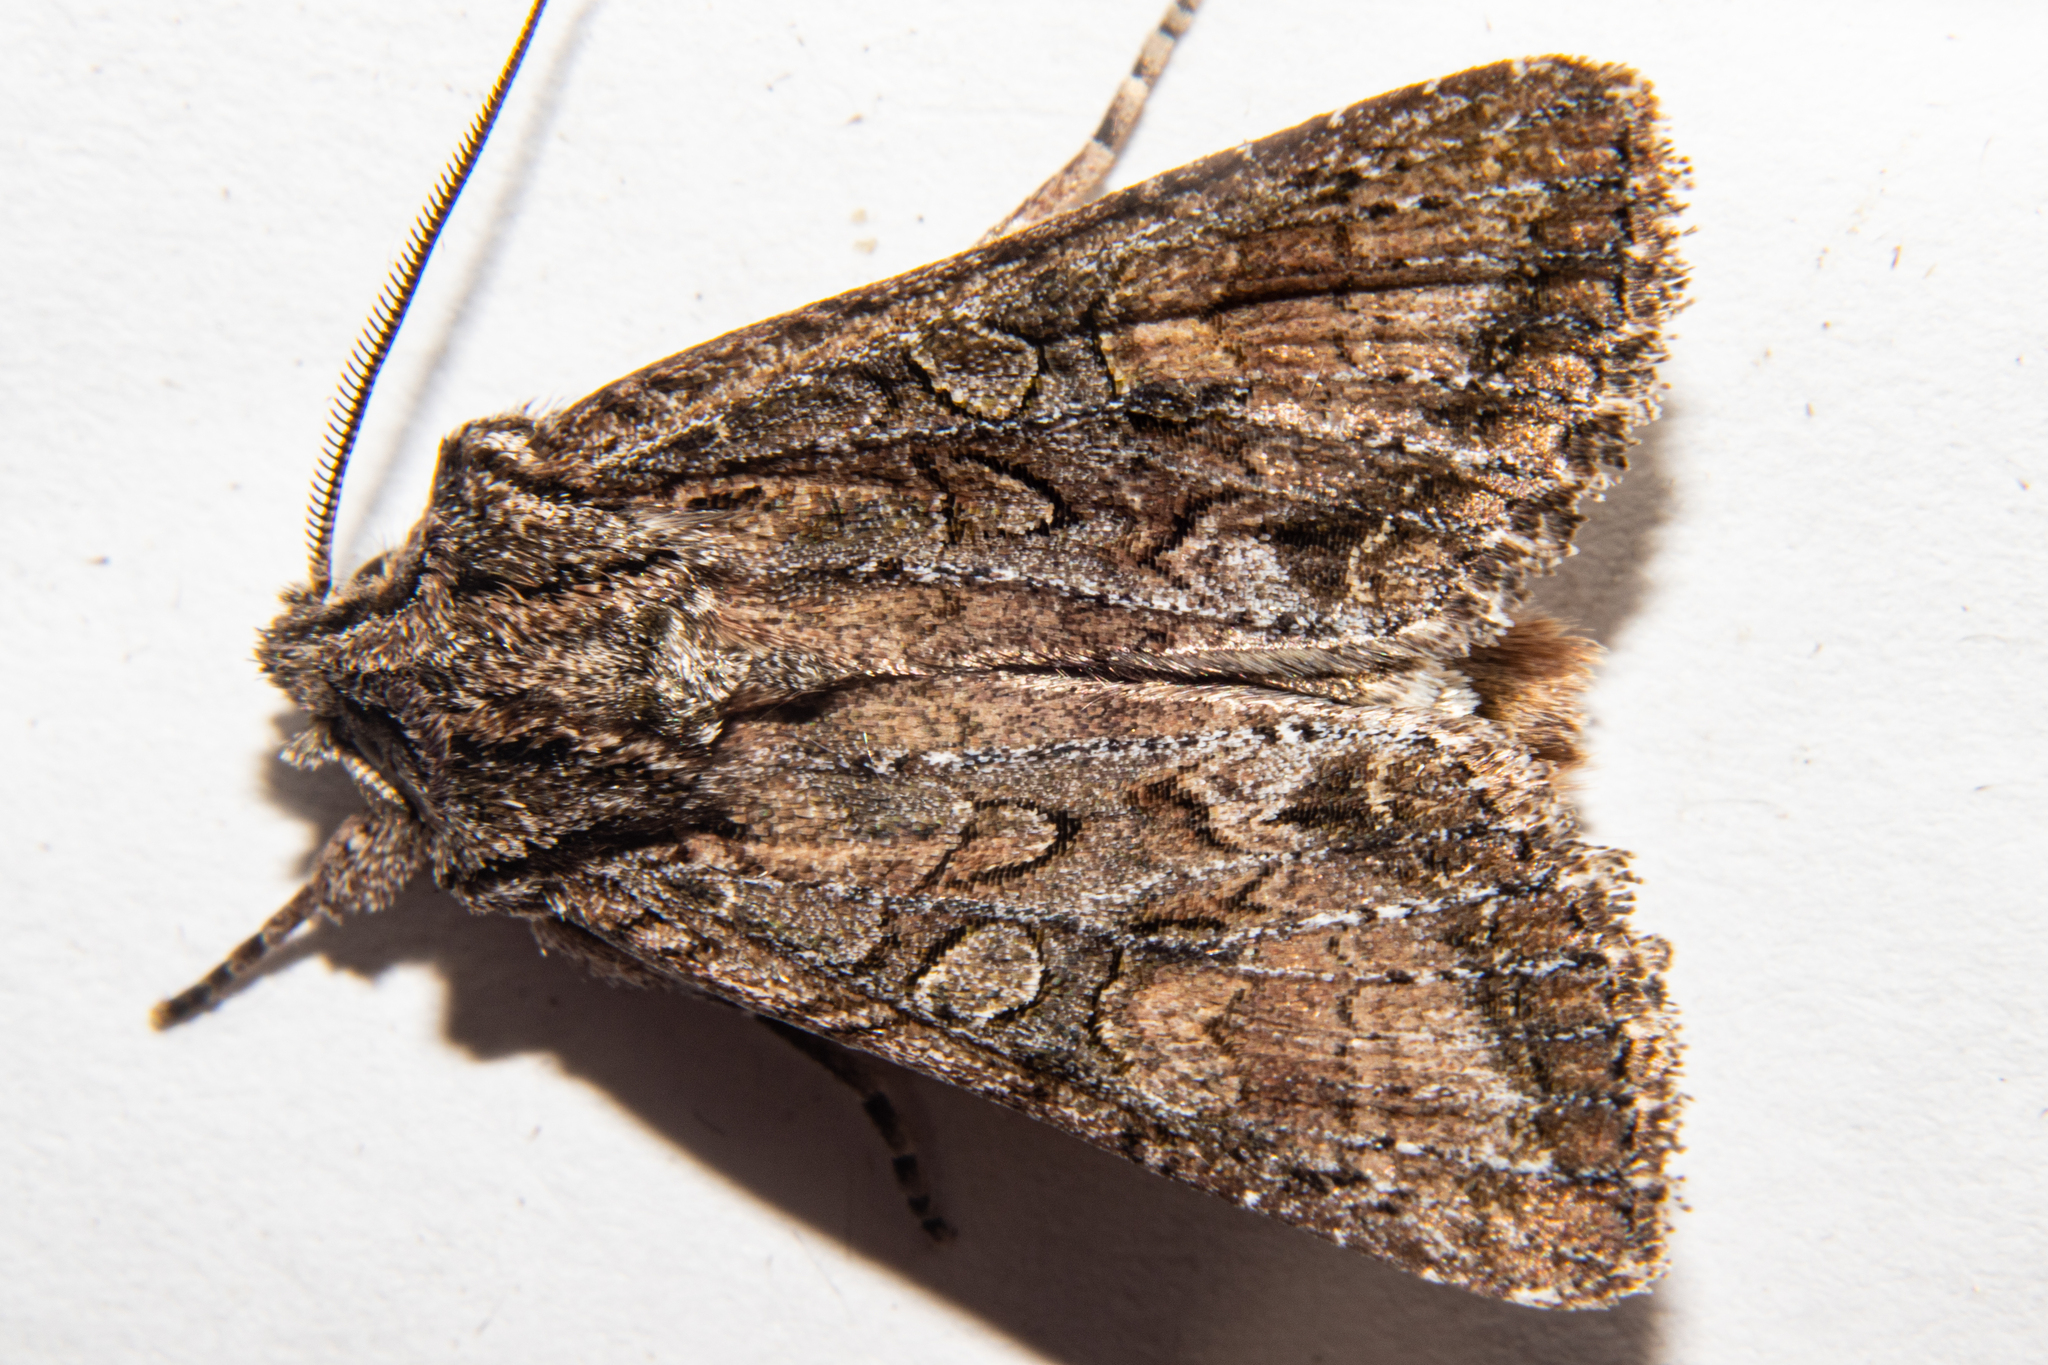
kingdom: Animalia
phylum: Arthropoda
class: Insecta
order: Lepidoptera
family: Noctuidae
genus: Ichneutica
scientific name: Ichneutica mutans
